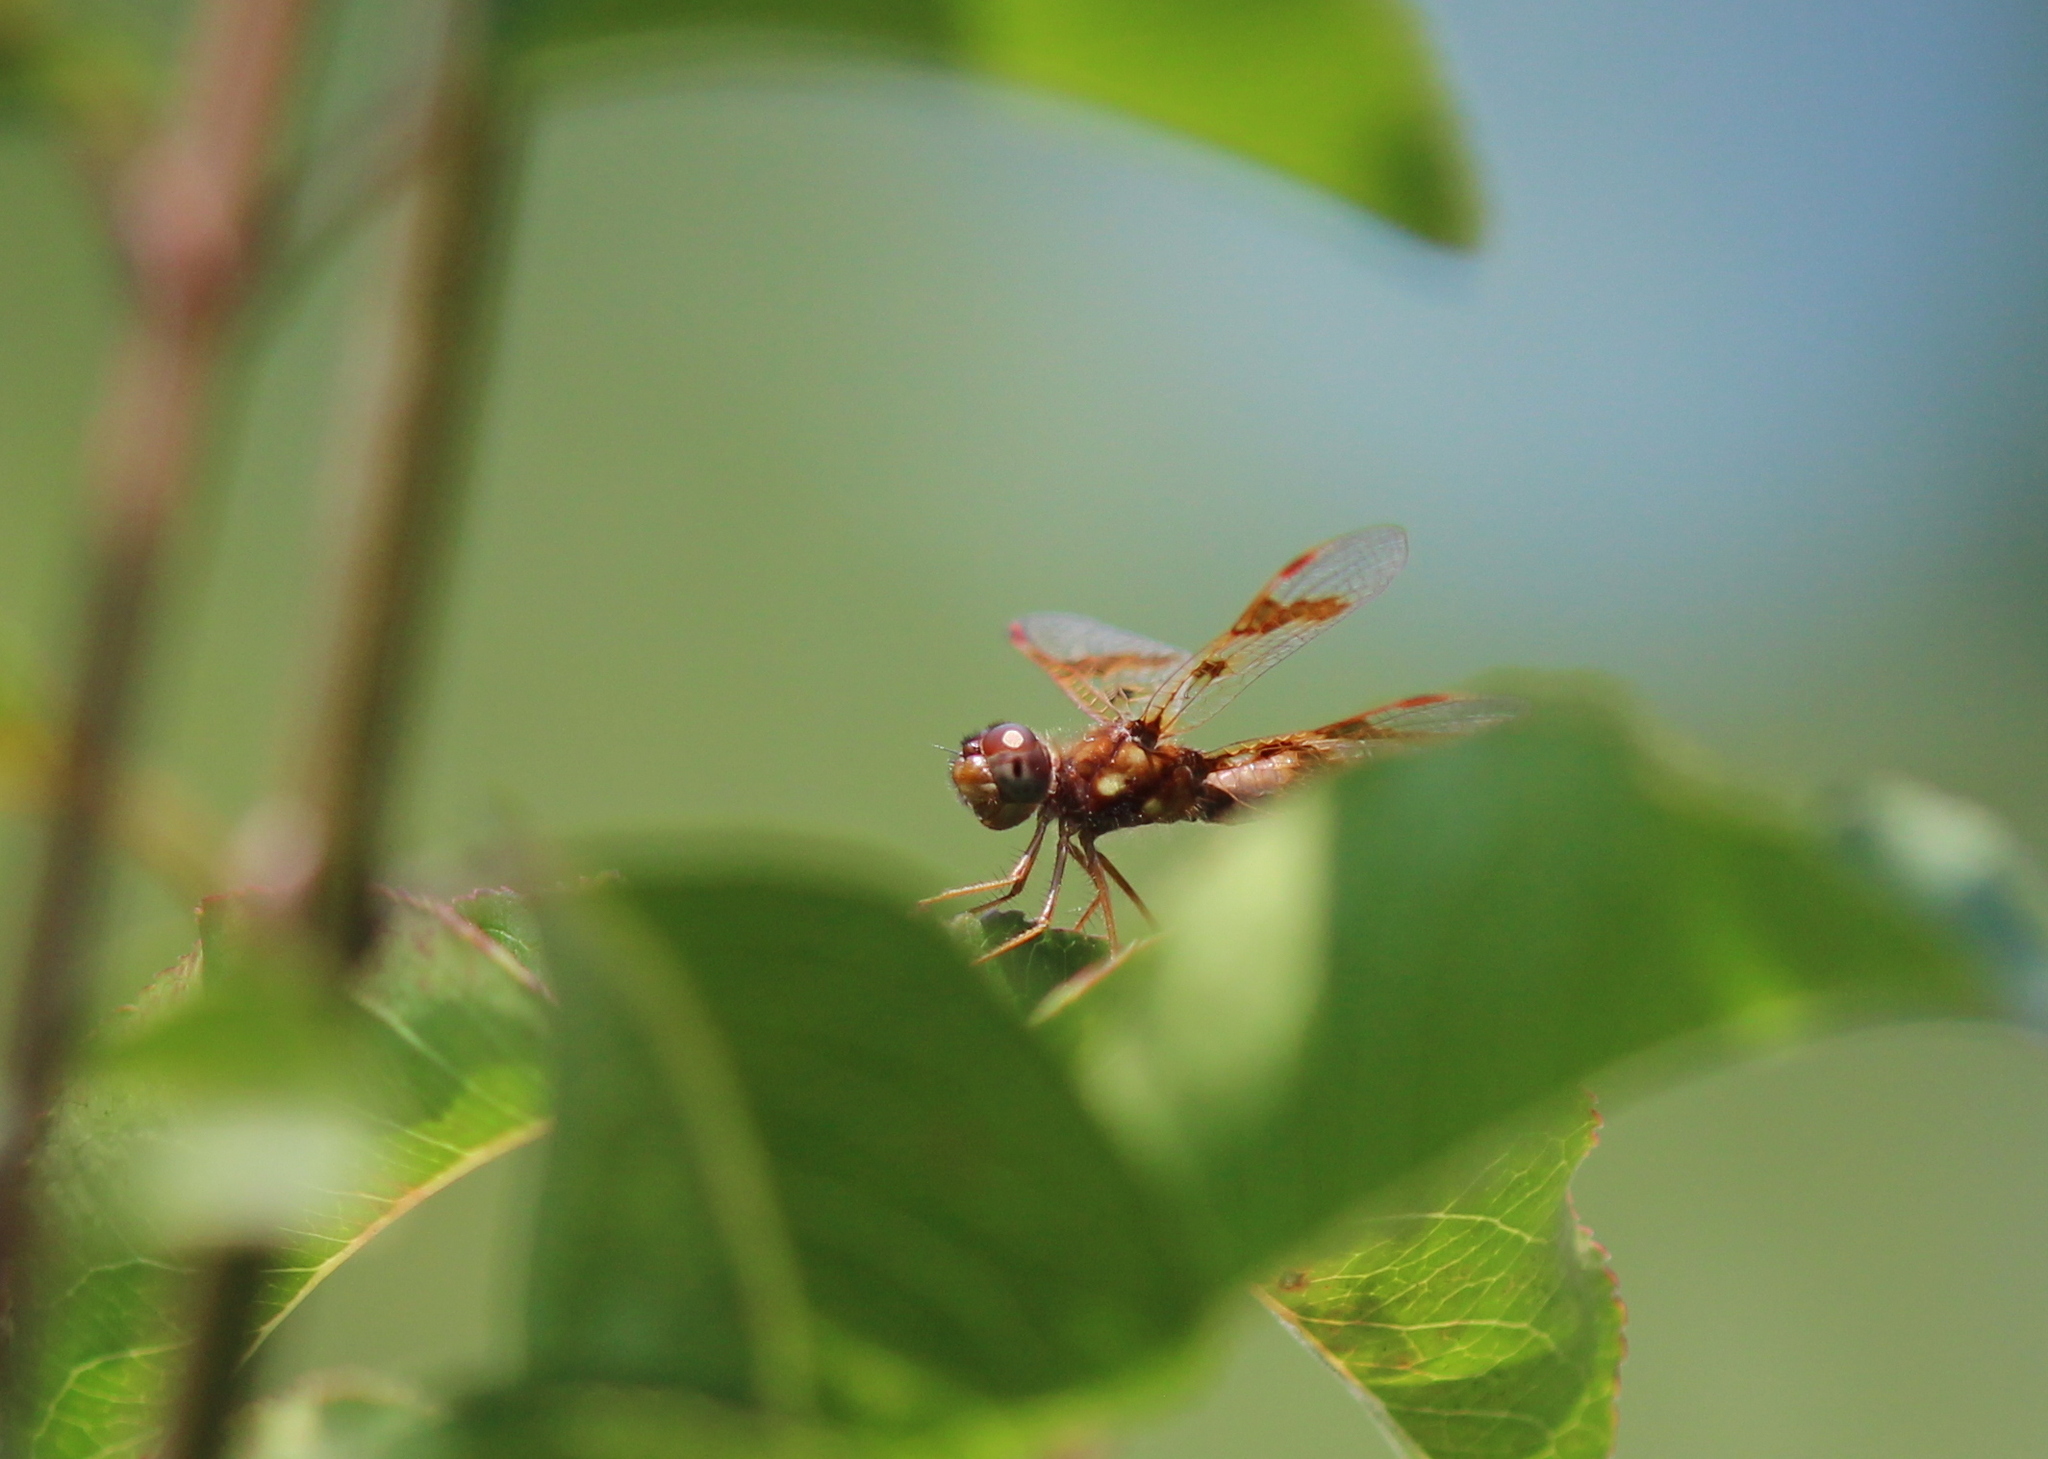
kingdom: Animalia
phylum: Arthropoda
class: Insecta
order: Odonata
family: Libellulidae
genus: Perithemis
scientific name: Perithemis tenera
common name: Eastern amberwing
